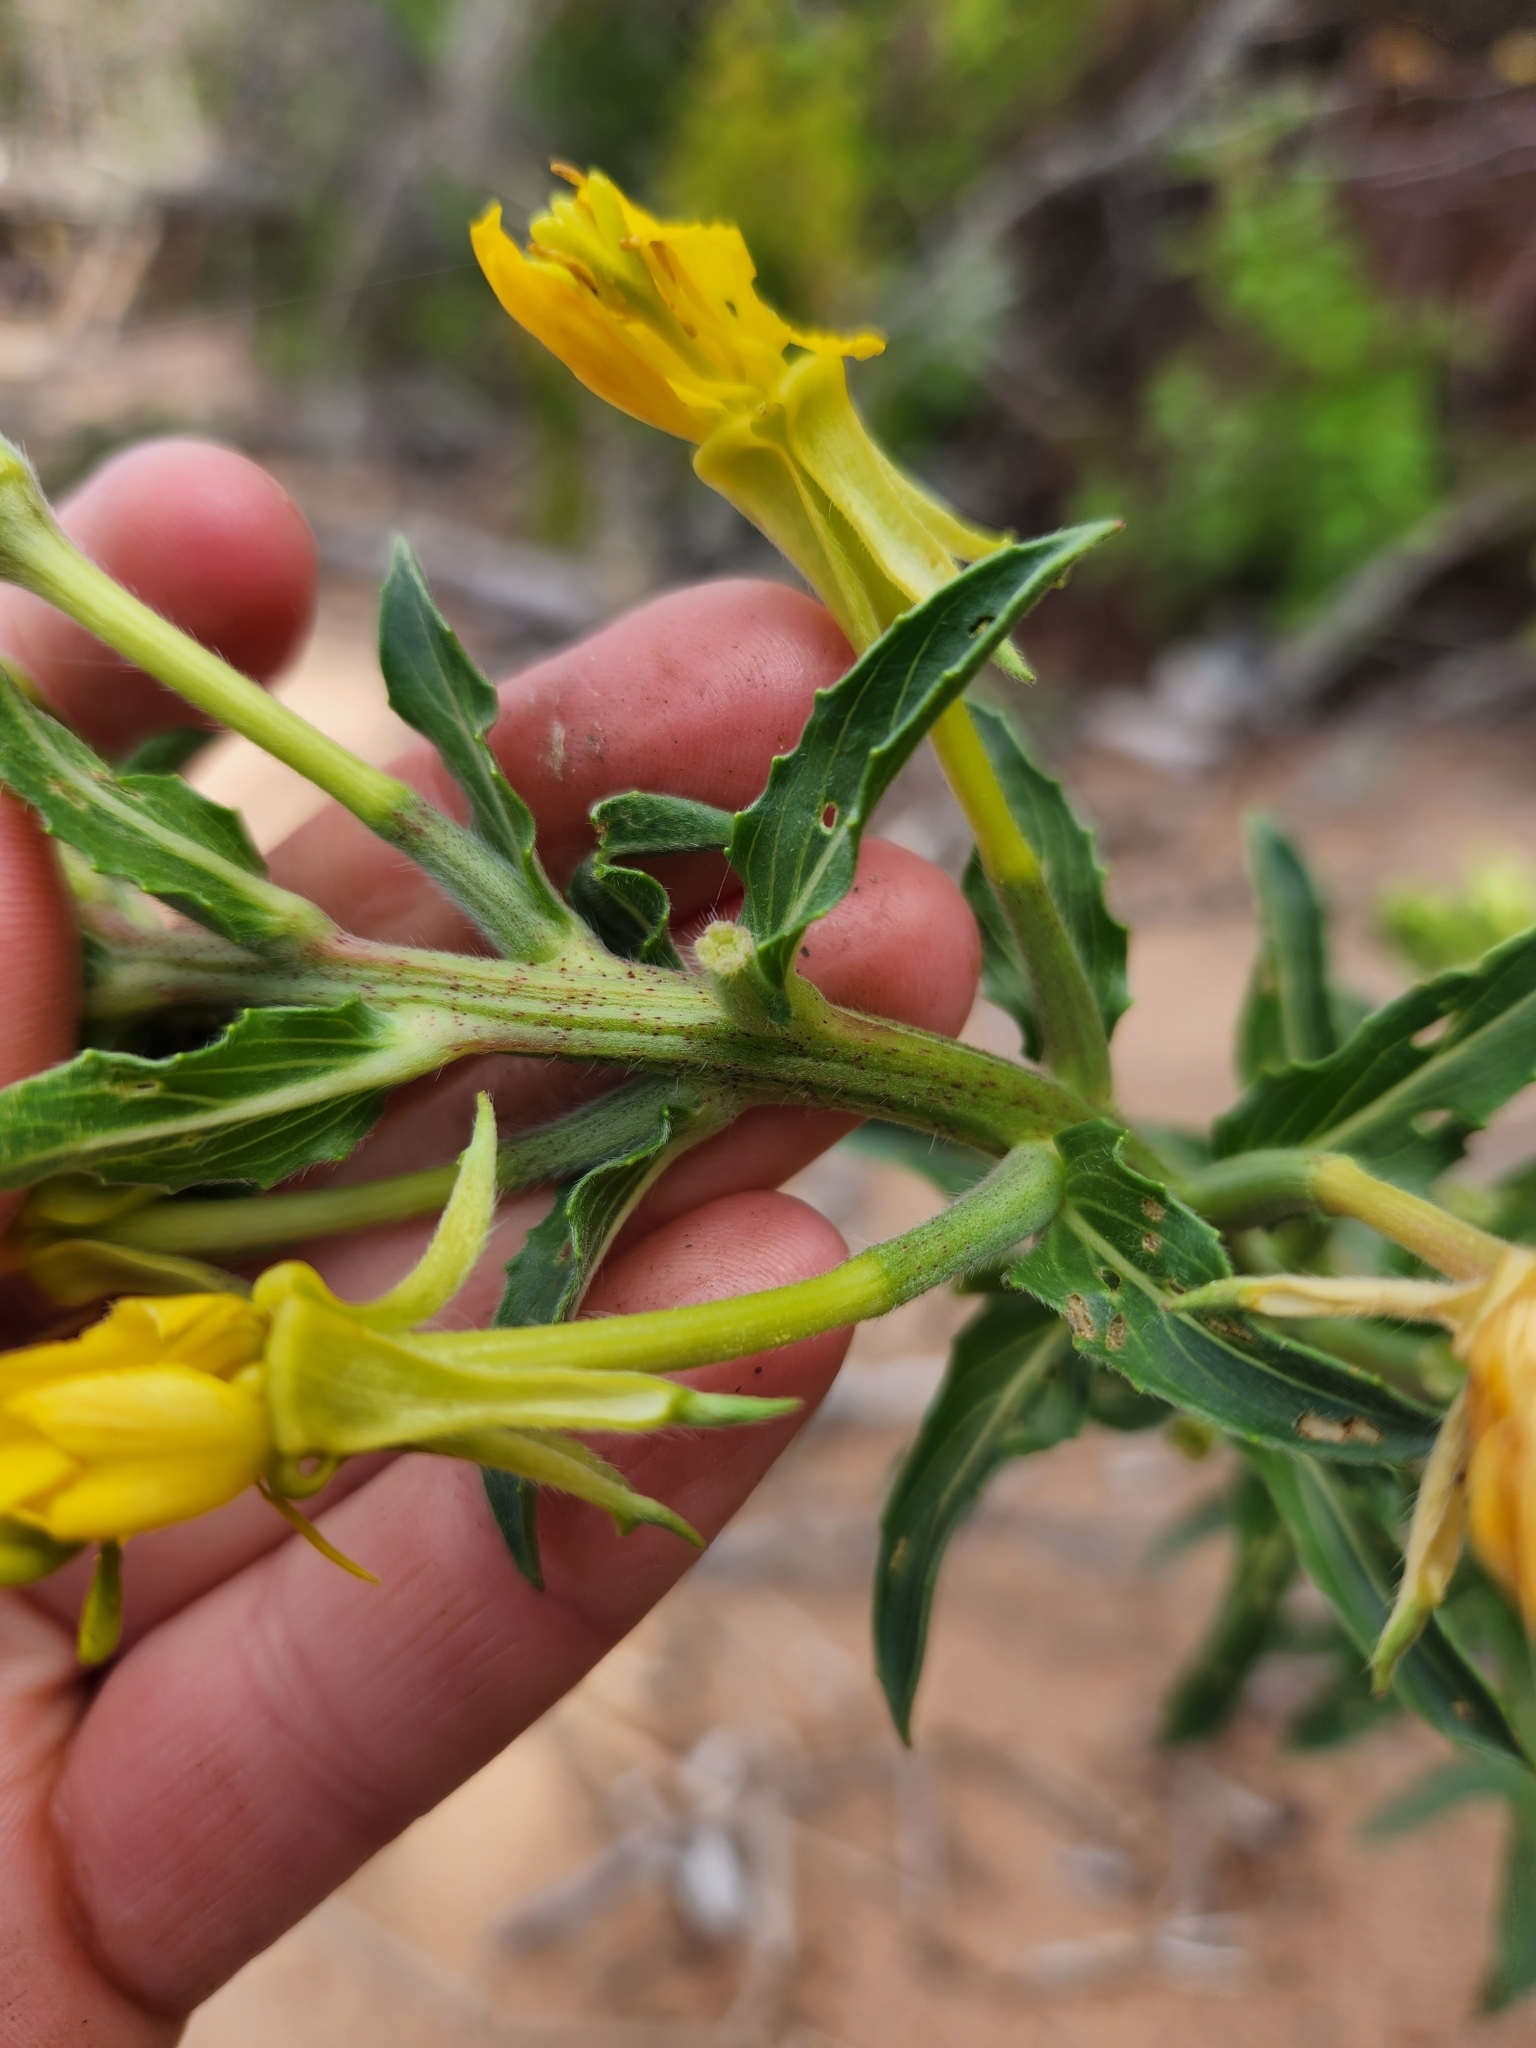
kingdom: Plantae
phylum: Tracheophyta
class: Magnoliopsida
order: Myrtales
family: Onagraceae
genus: Oenothera
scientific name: Oenothera parviflora
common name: Least evening-primrose
